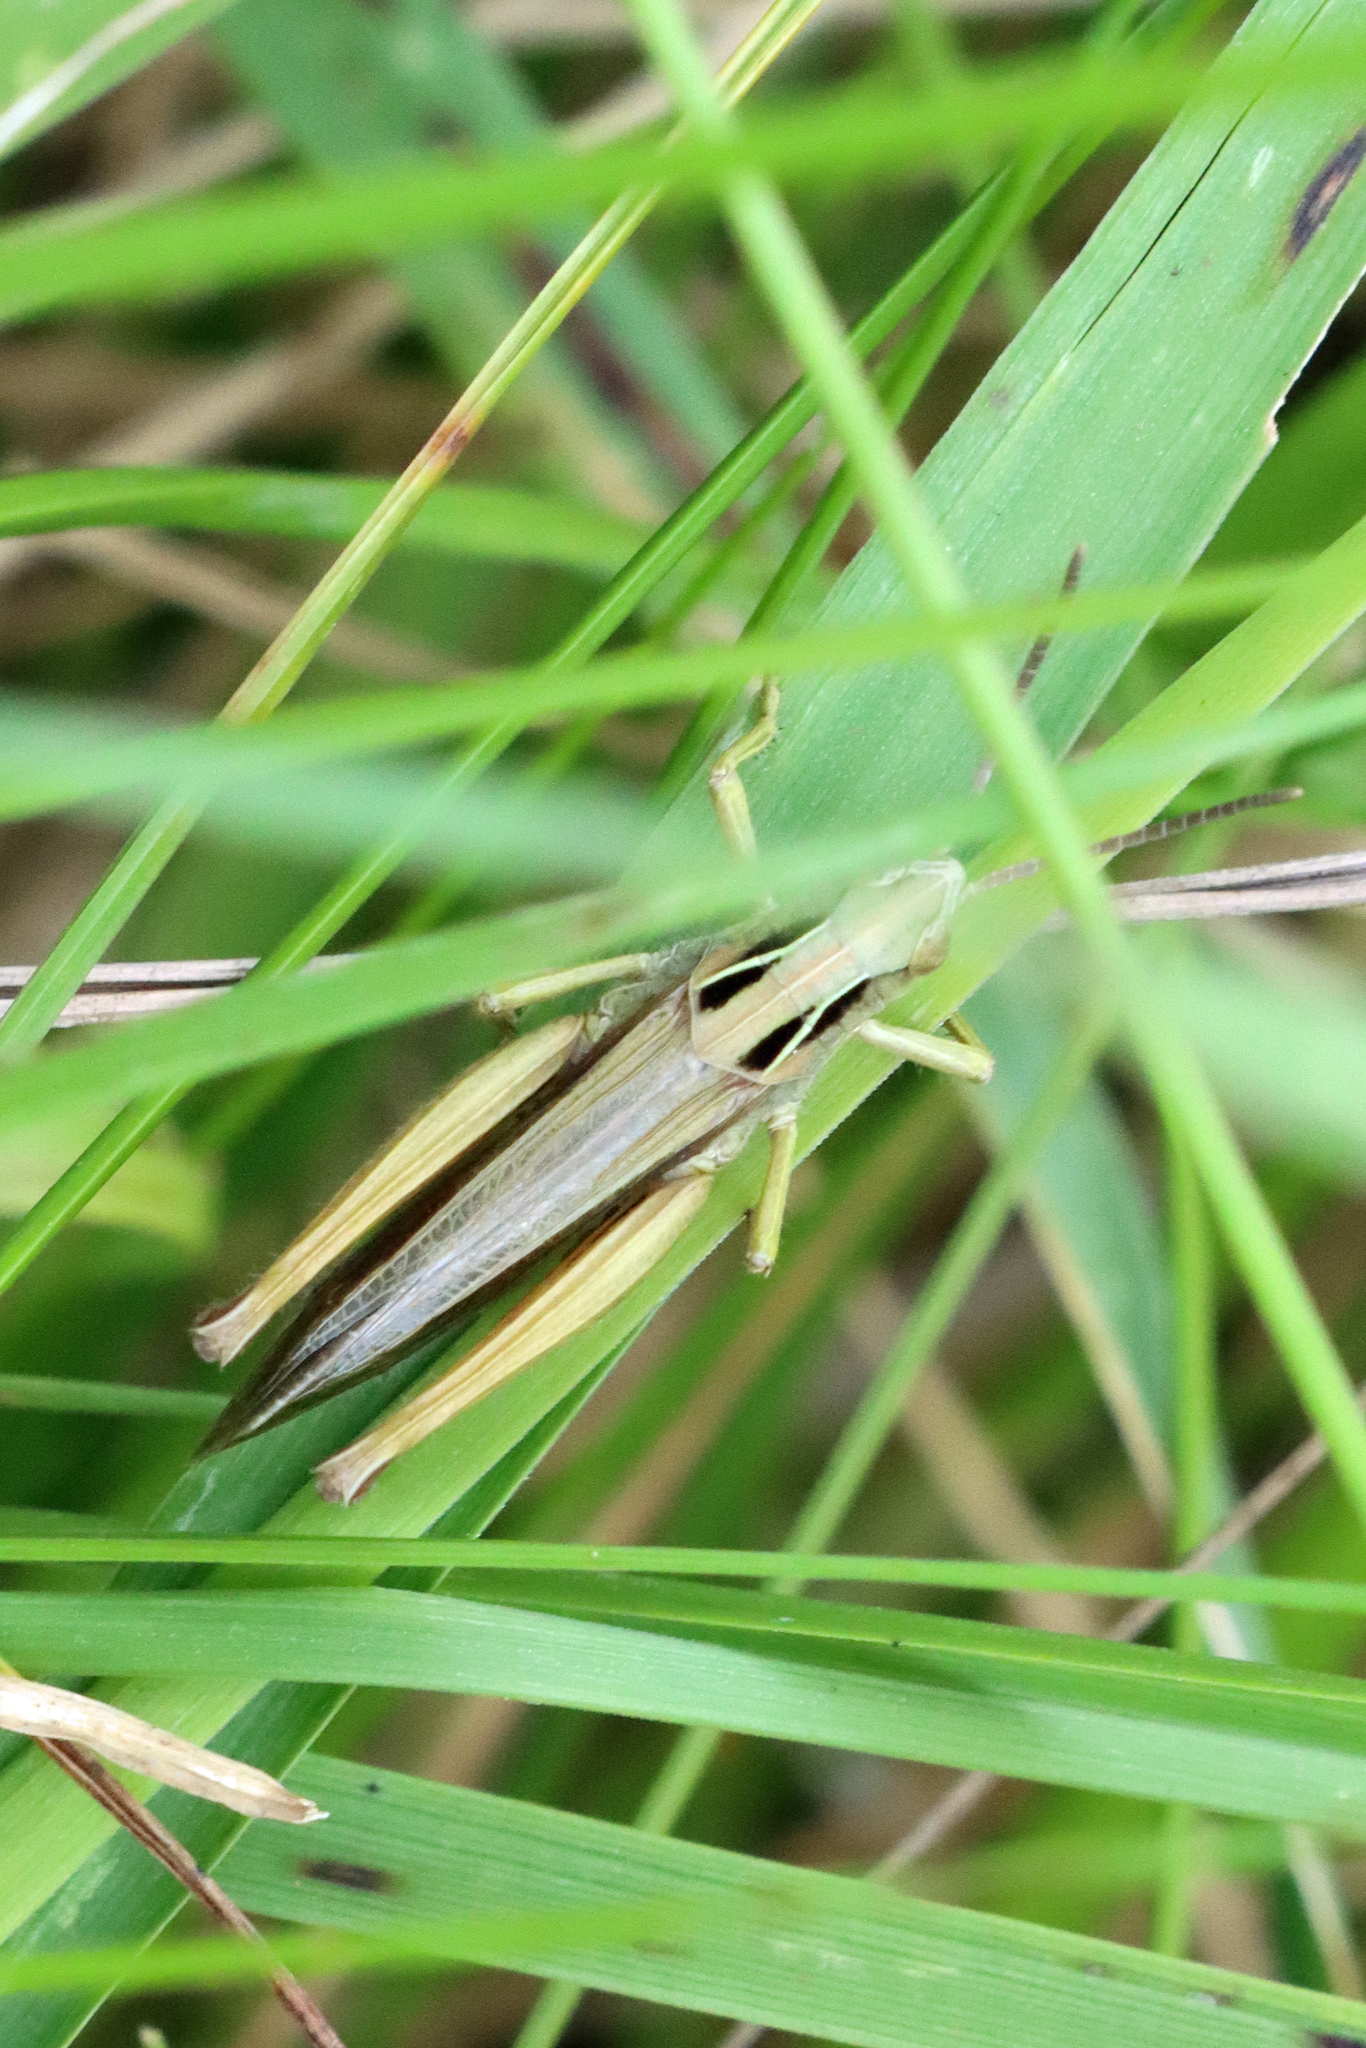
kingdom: Animalia
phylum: Arthropoda
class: Insecta
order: Orthoptera
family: Acrididae
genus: Omocestus
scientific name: Omocestus viridulus
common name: Common green grasshopper
